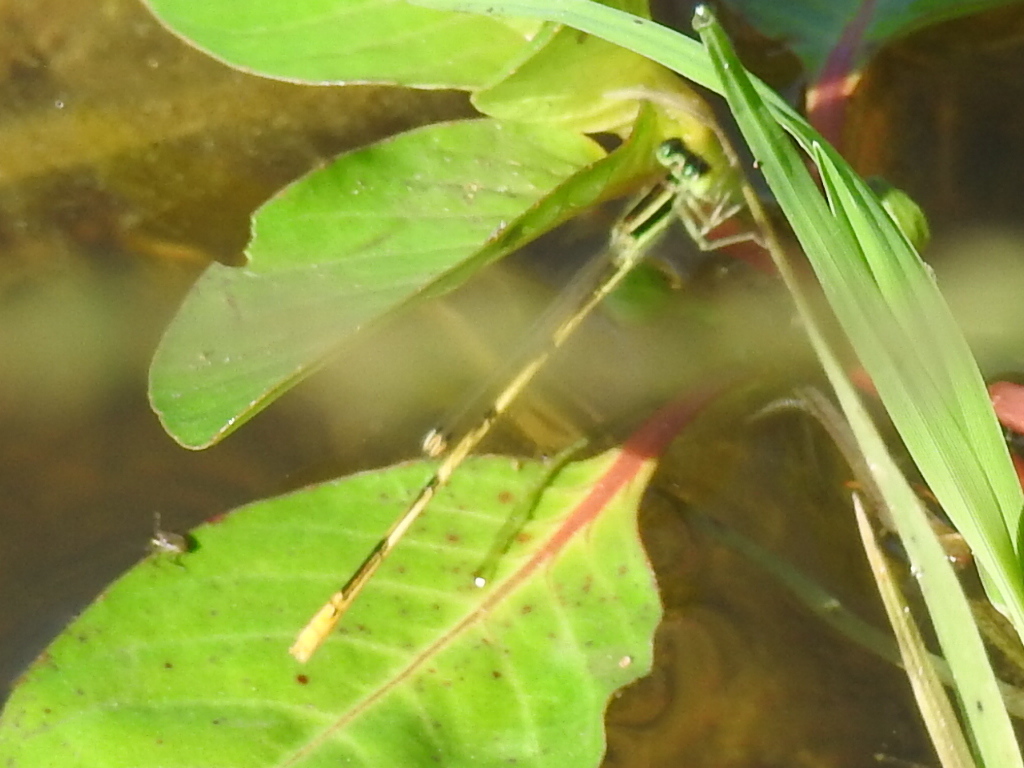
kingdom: Animalia
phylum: Arthropoda
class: Insecta
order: Odonata
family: Coenagrionidae
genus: Ischnura
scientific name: Ischnura hastata
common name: Citrine forktail
